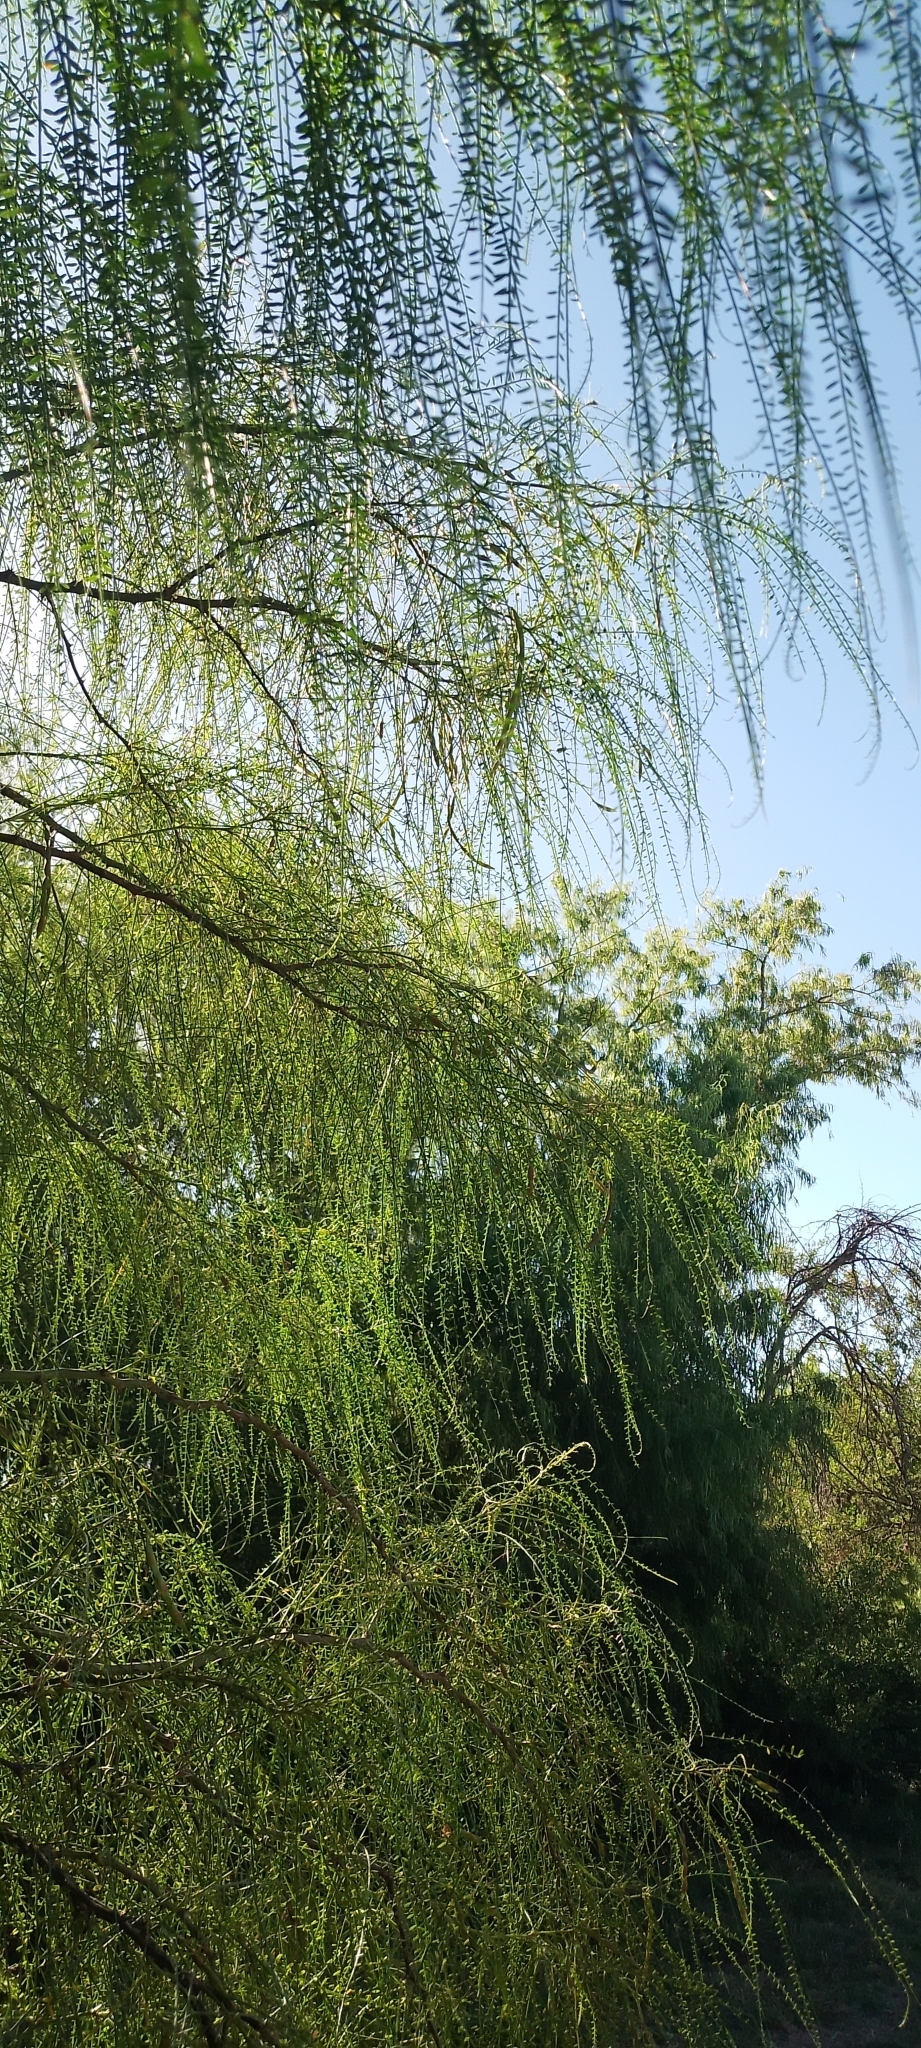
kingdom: Plantae
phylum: Tracheophyta
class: Magnoliopsida
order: Fabales
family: Fabaceae
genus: Parkinsonia
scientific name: Parkinsonia aculeata
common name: Jerusalem thorn
